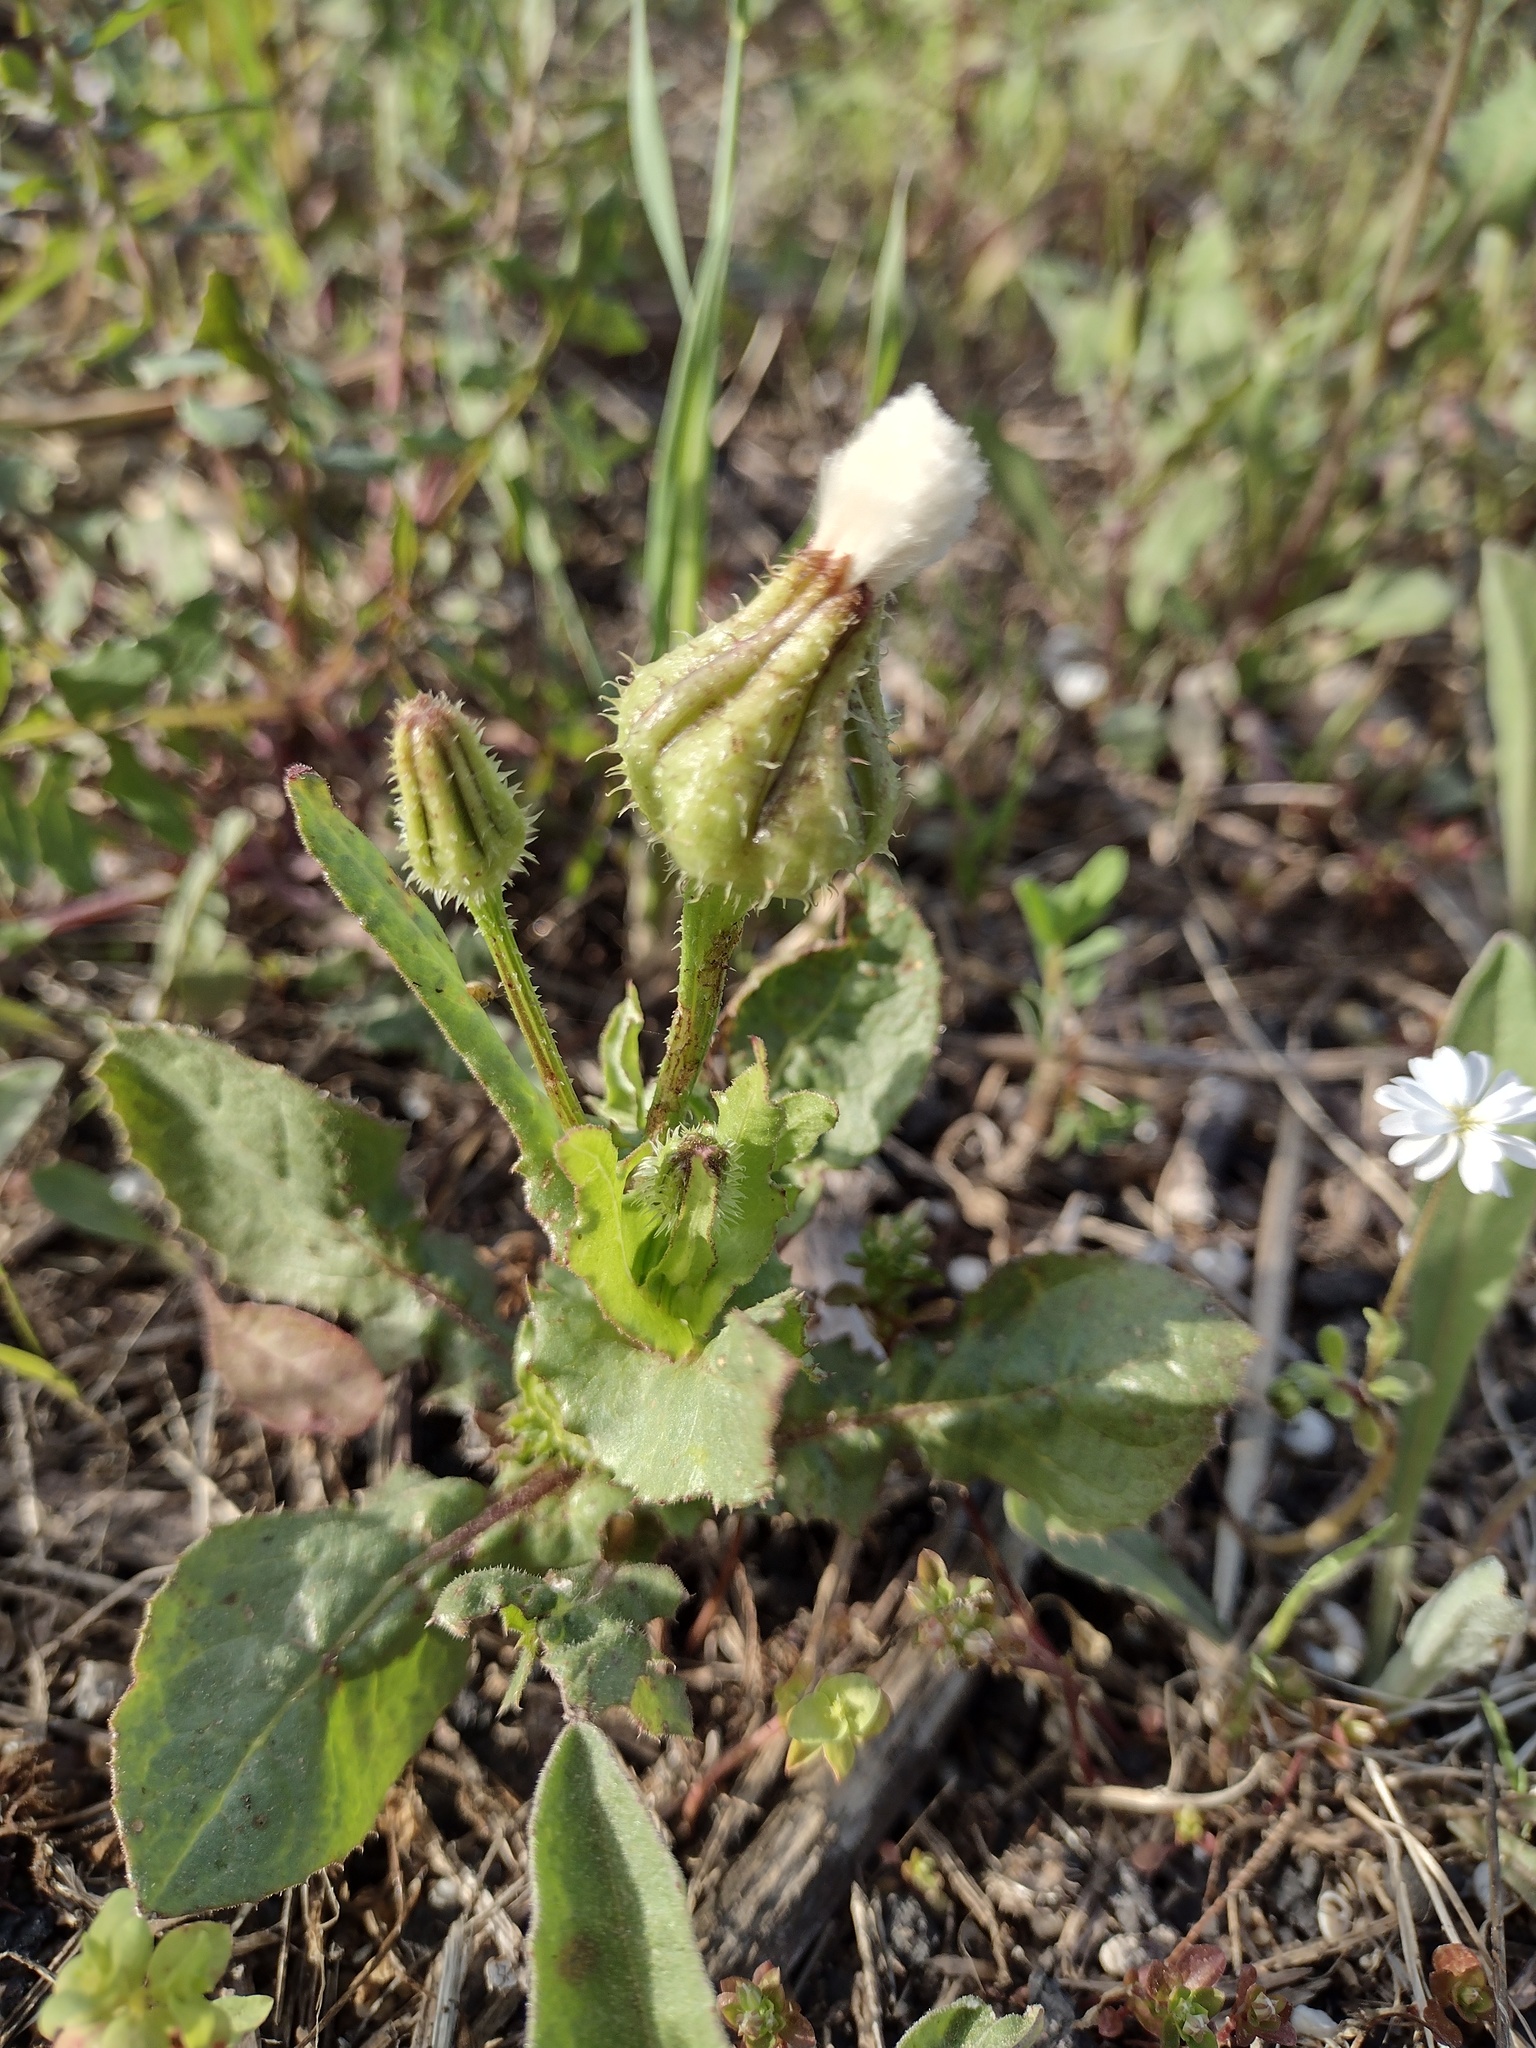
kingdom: Plantae
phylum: Tracheophyta
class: Magnoliopsida
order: Asterales
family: Asteraceae
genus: Urospermum
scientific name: Urospermum picroides
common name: False hawkbit
